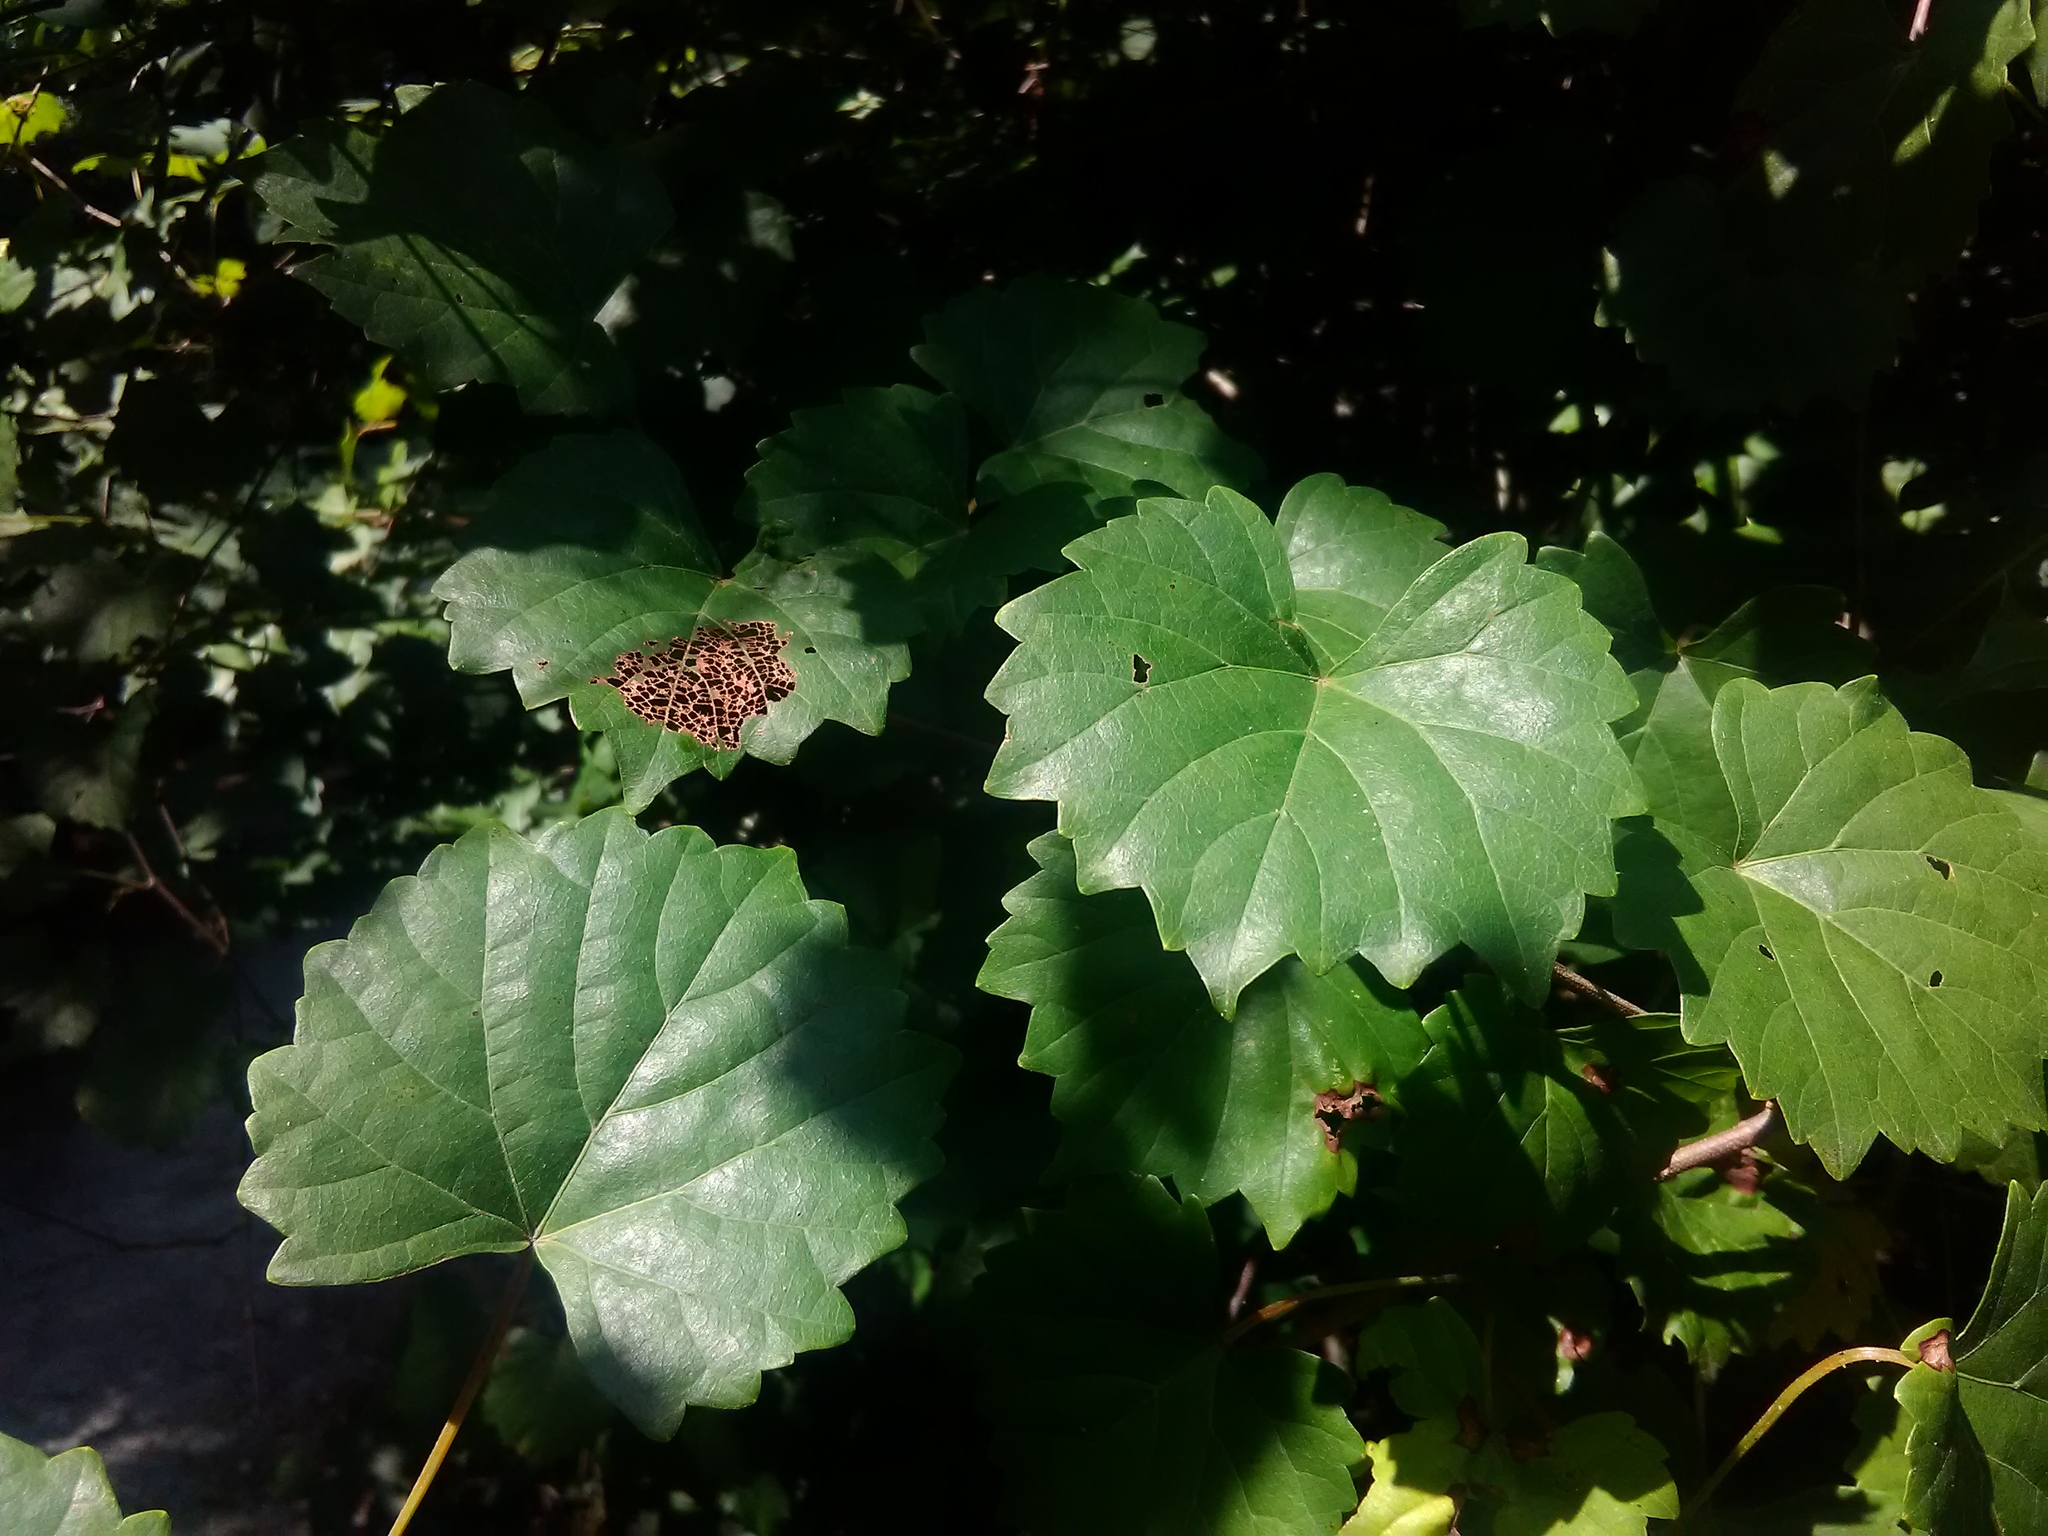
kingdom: Plantae
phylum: Tracheophyta
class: Magnoliopsida
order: Vitales
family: Vitaceae
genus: Vitis
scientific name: Vitis rotundifolia
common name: Muscadine grape
